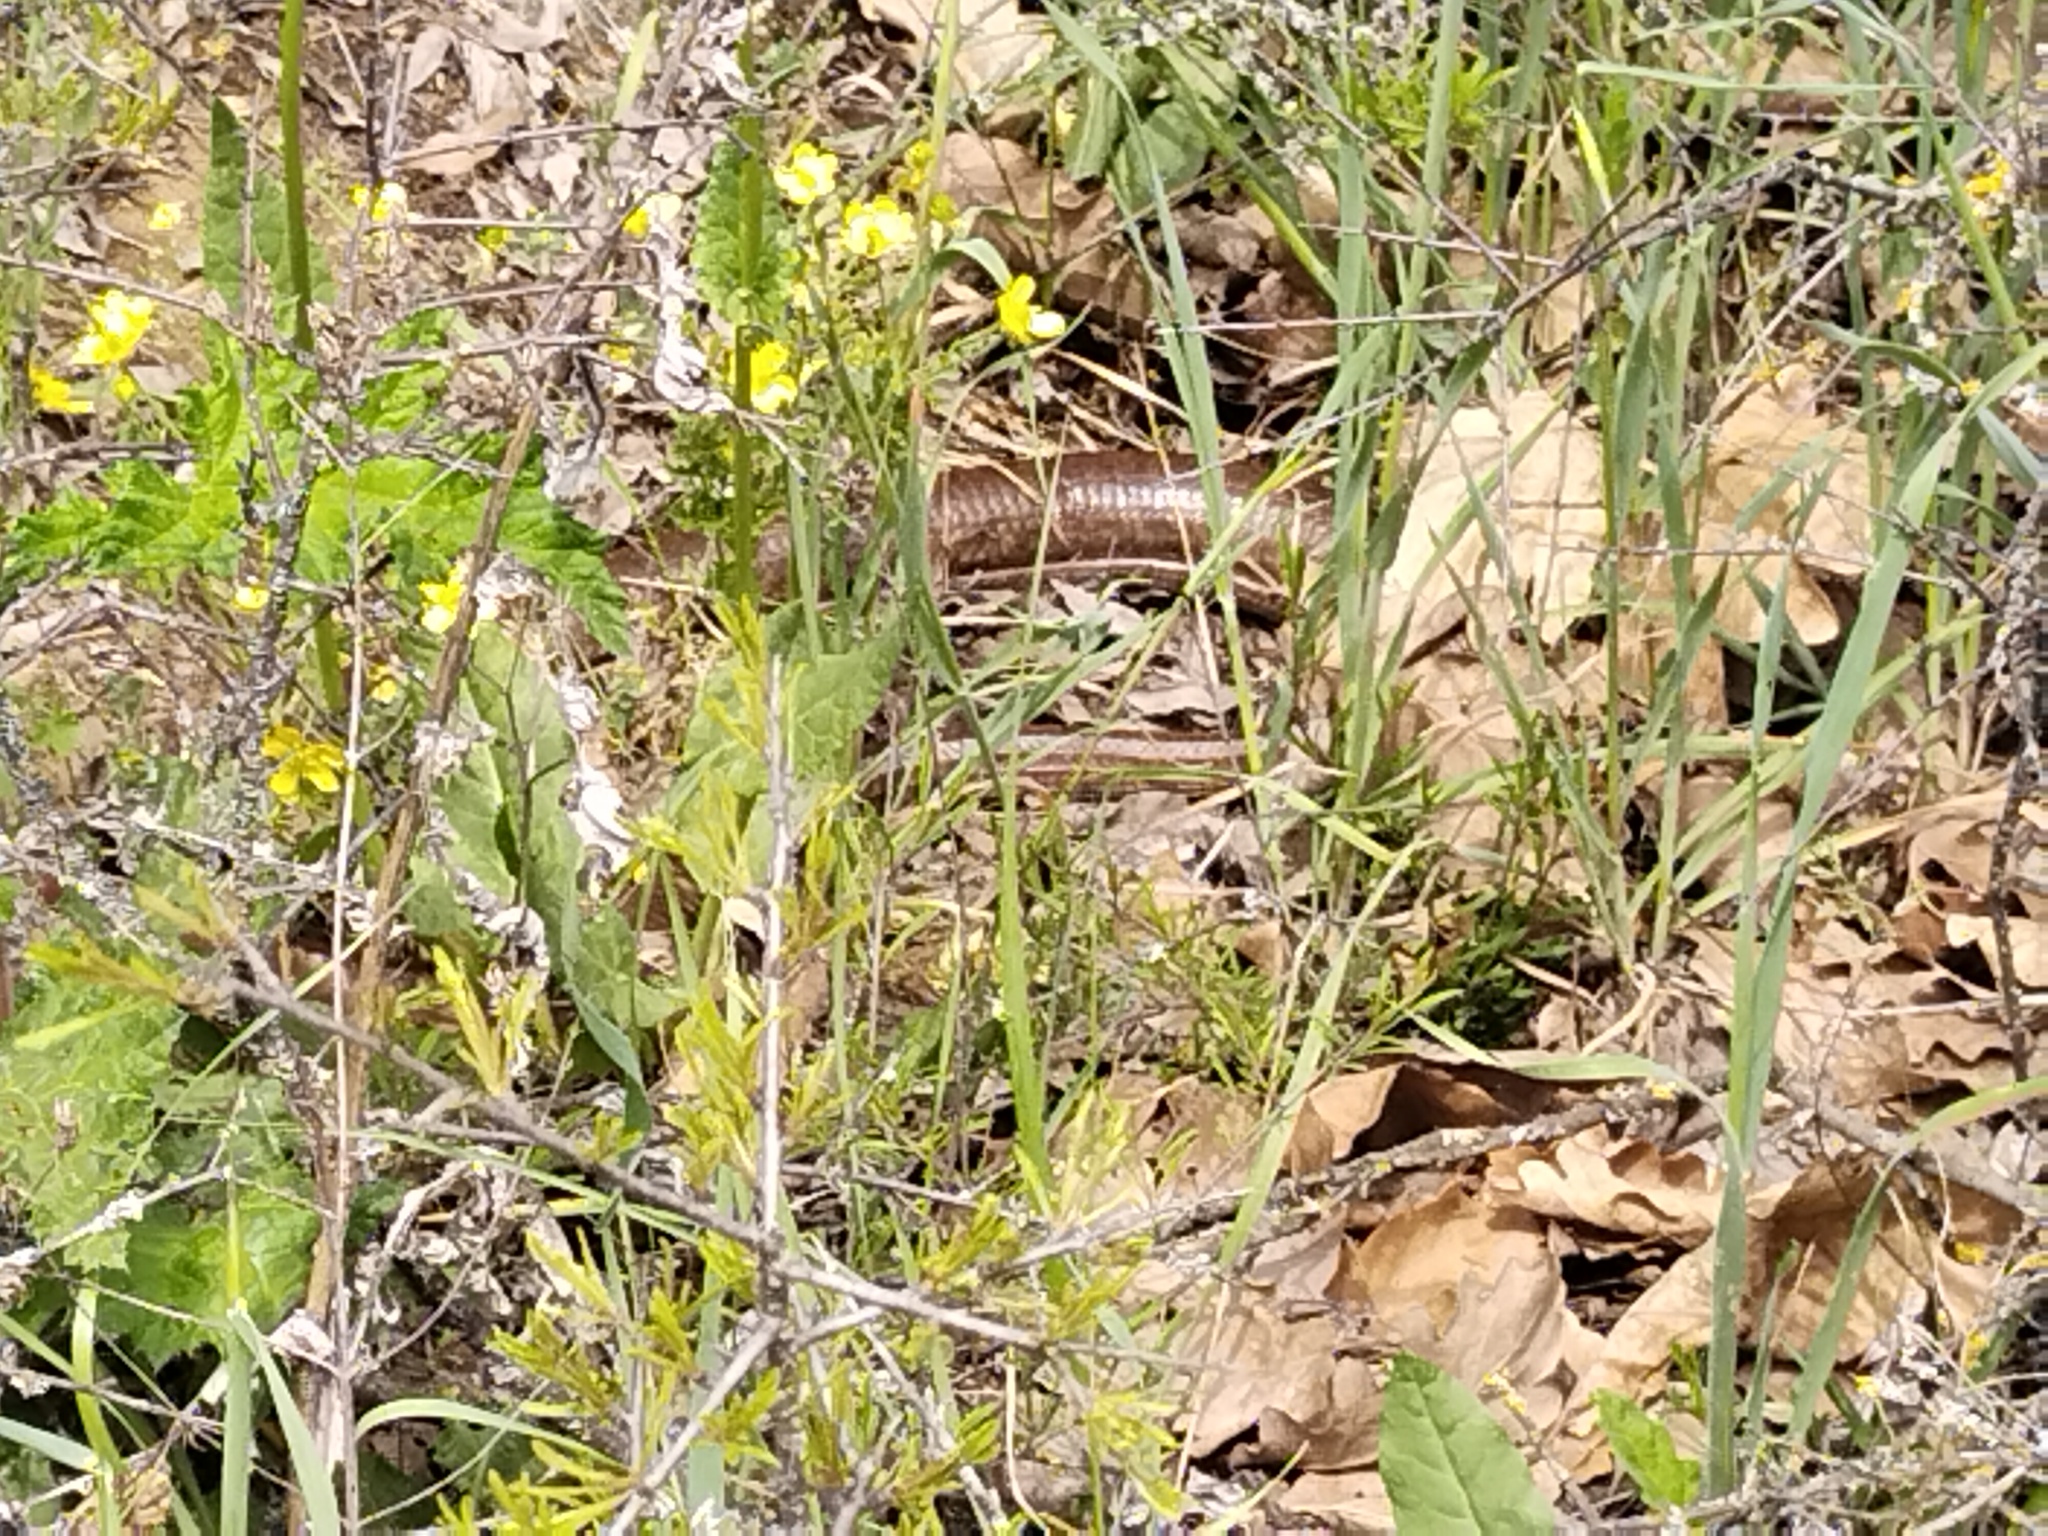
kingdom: Animalia
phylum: Chordata
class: Squamata
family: Anguidae
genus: Pseudopus
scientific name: Pseudopus apodus
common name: European glass lizard
